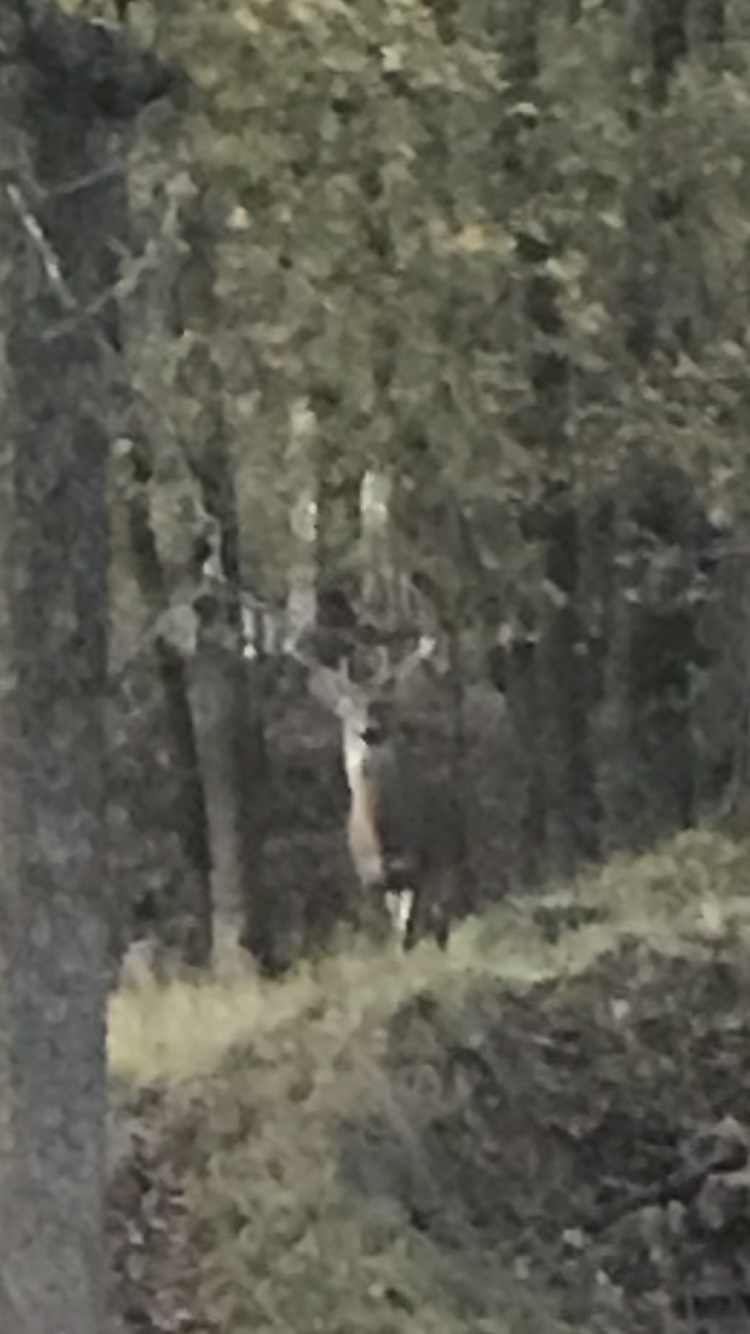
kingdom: Animalia
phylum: Chordata
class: Mammalia
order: Artiodactyla
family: Cervidae
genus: Odocoileus
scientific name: Odocoileus virginianus
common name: White-tailed deer
